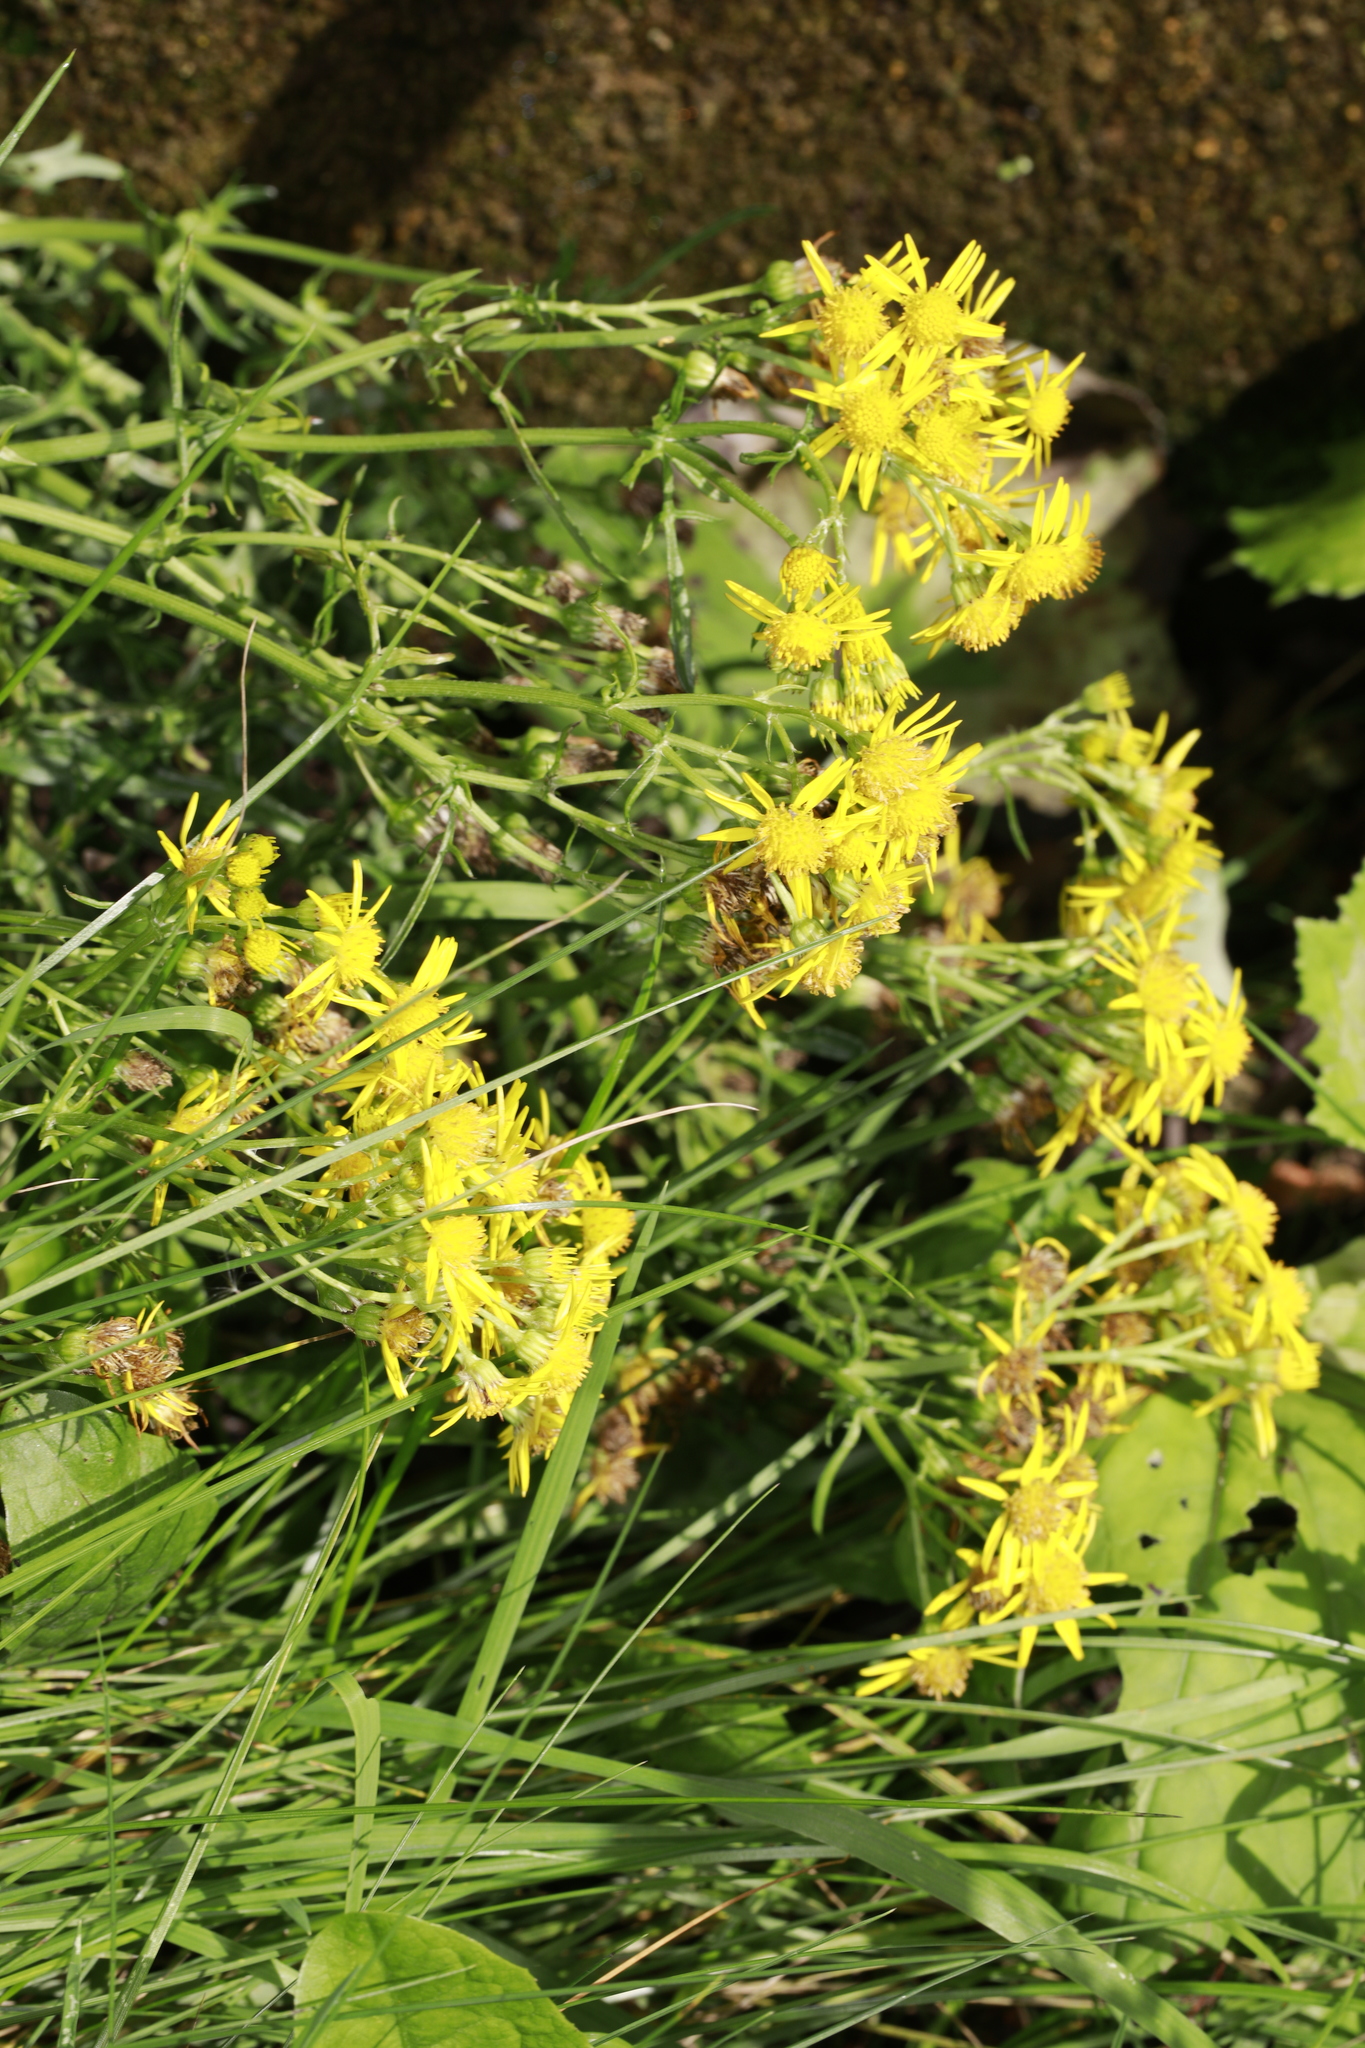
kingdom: Plantae
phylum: Tracheophyta
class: Magnoliopsida
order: Asterales
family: Asteraceae
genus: Jacobaea
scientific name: Jacobaea vulgaris
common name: Stinking willie
